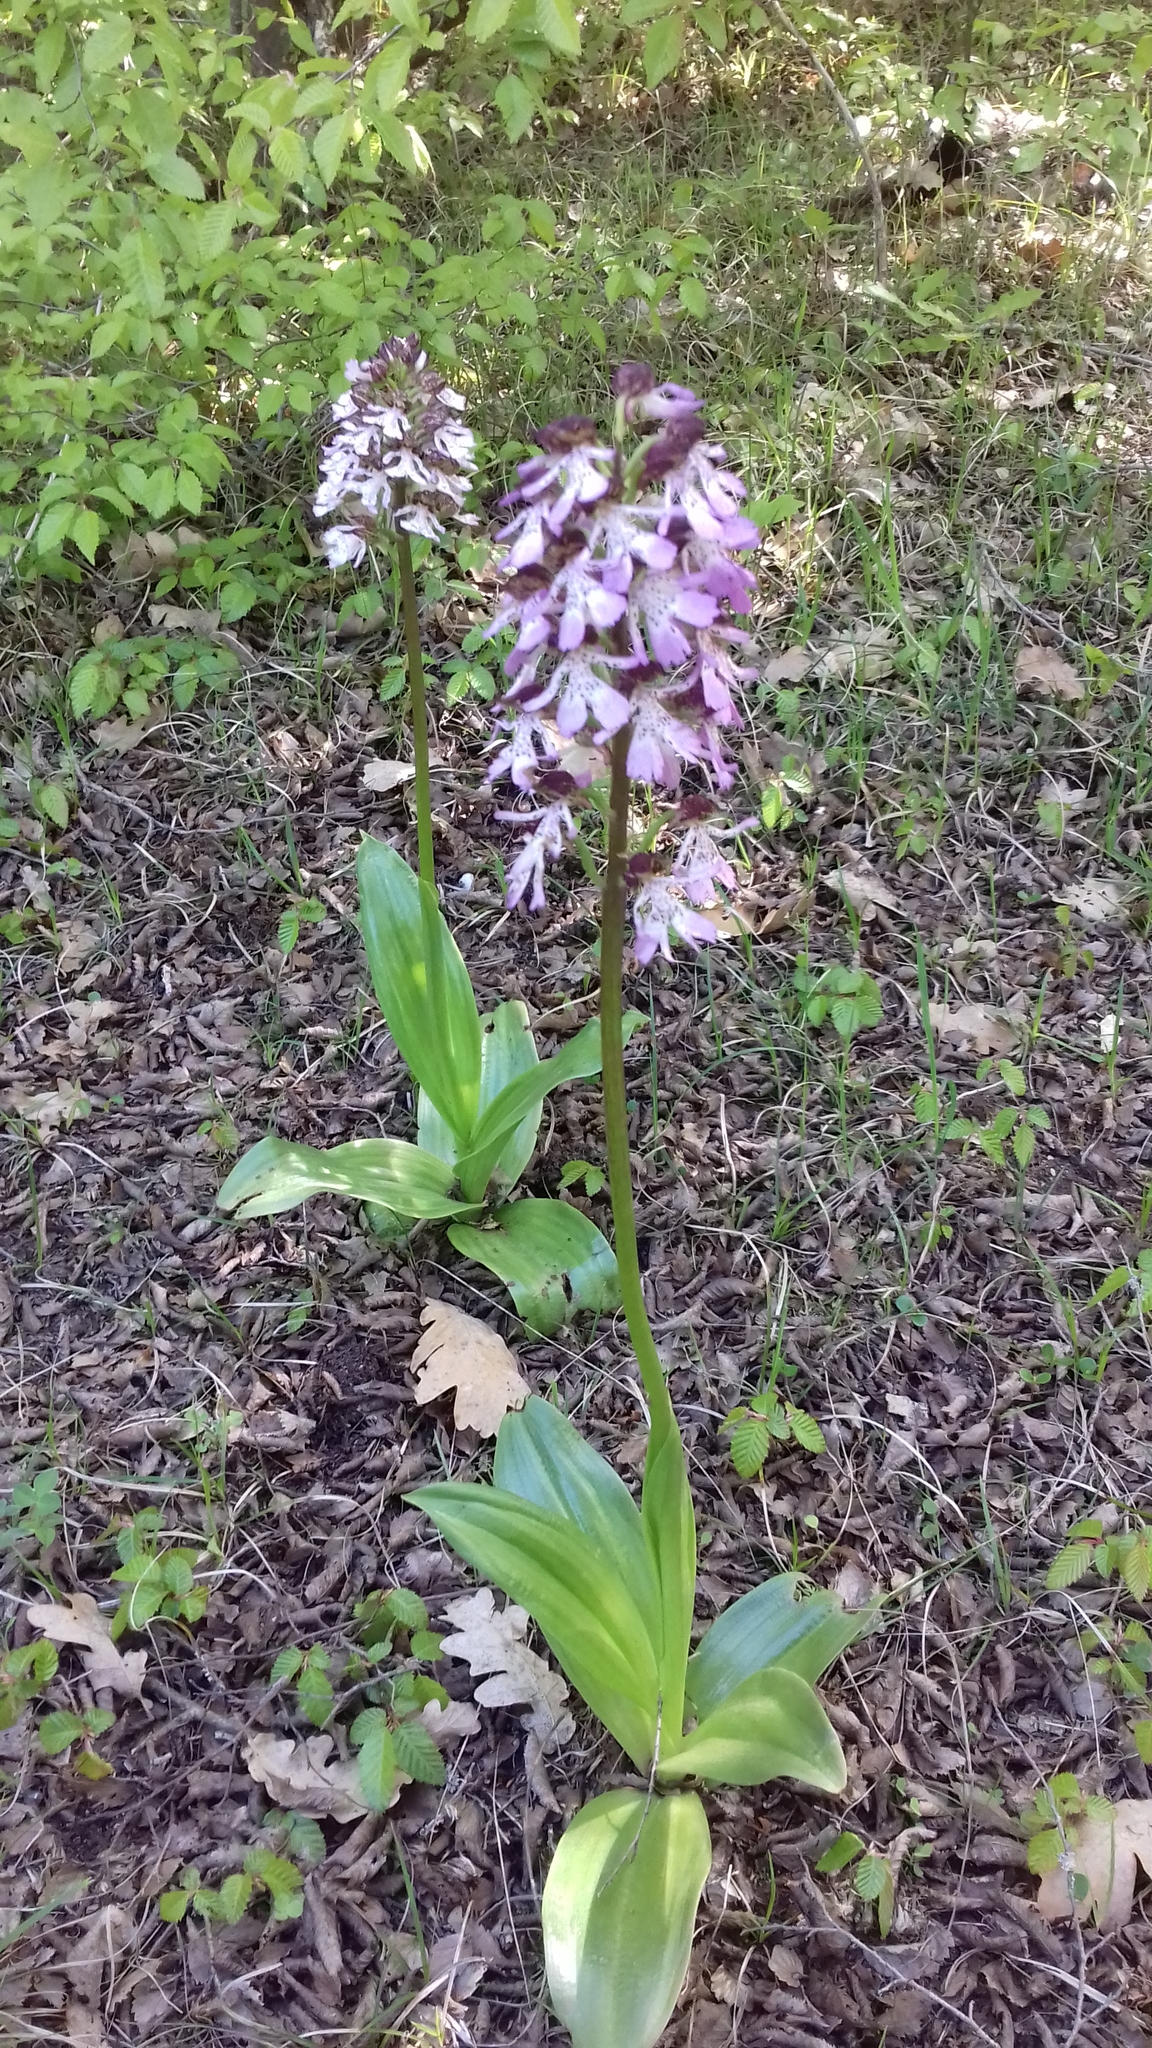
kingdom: Plantae
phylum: Tracheophyta
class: Liliopsida
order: Asparagales
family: Orchidaceae
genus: Orchis
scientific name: Orchis purpurea
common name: Lady orchid
